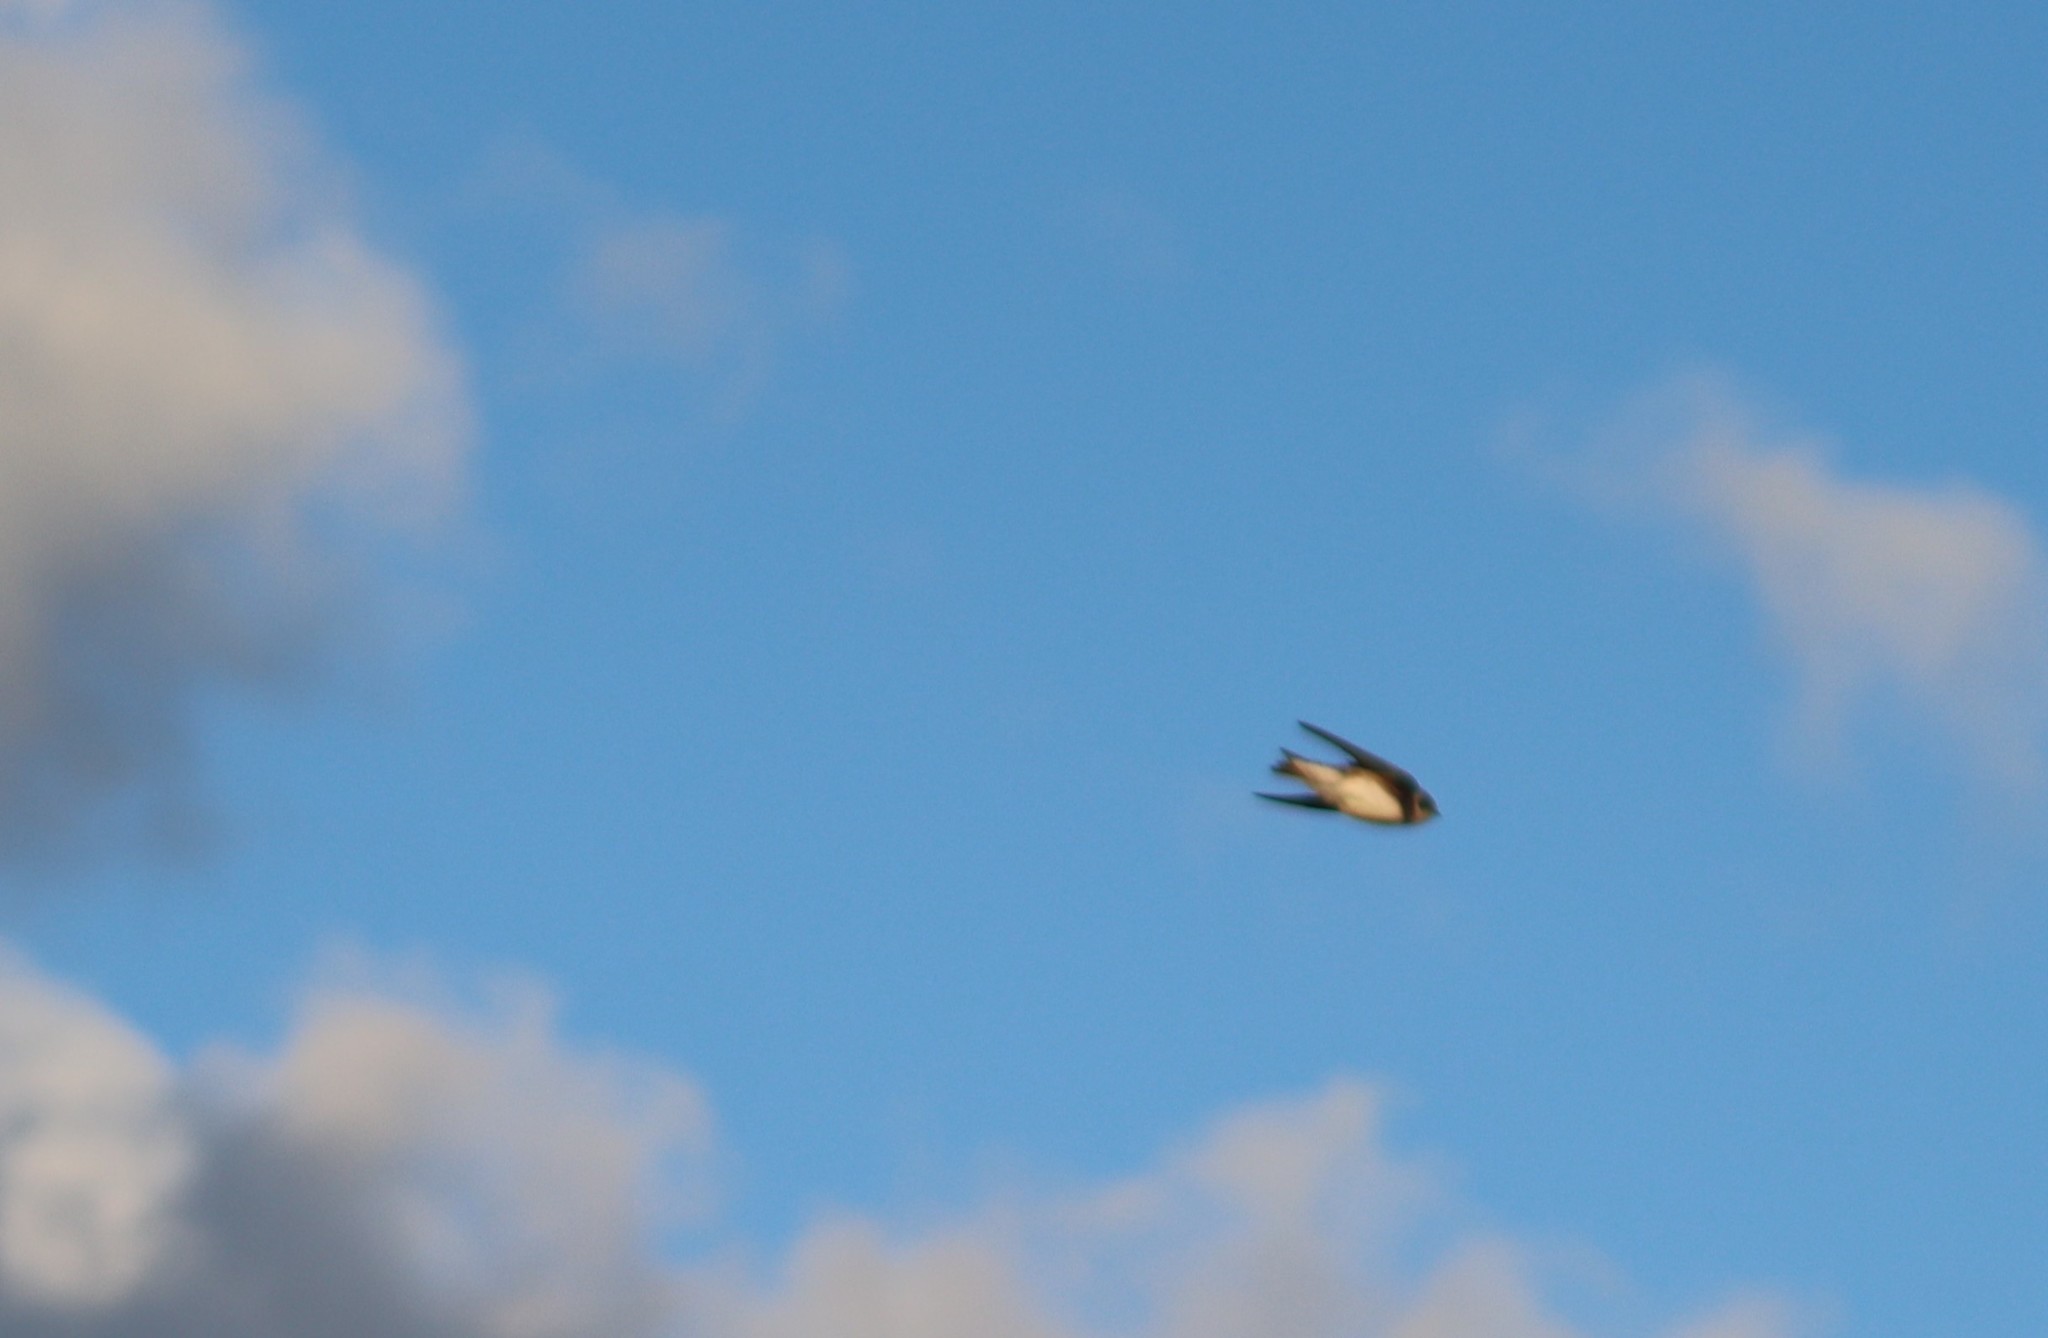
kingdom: Animalia
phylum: Chordata
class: Aves
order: Passeriformes
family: Hirundinidae
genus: Riparia
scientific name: Riparia riparia
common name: Sand martin
